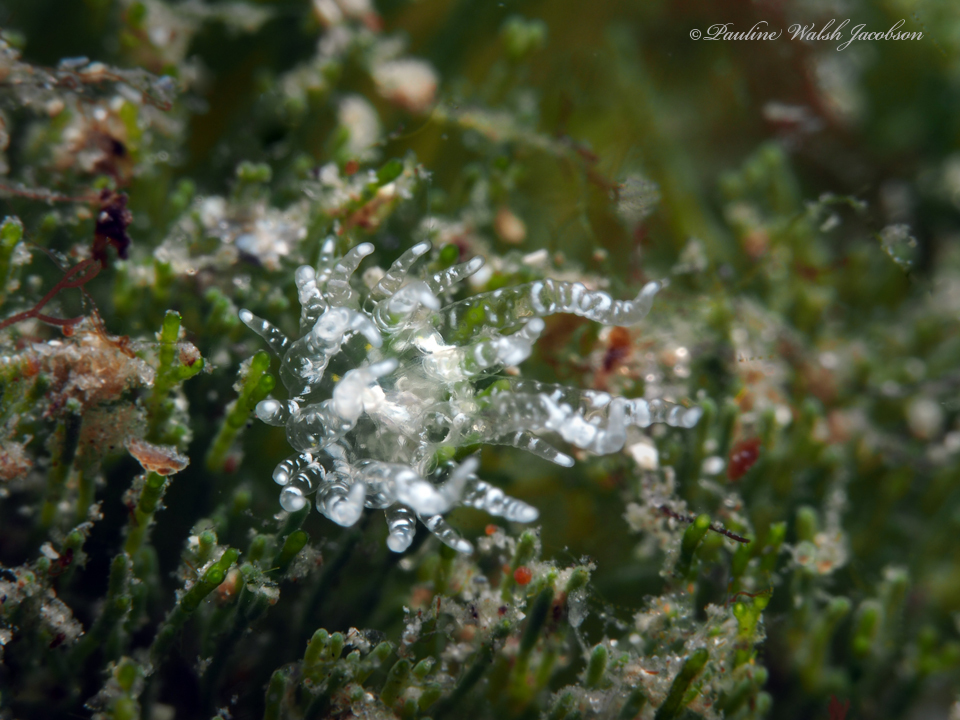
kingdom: Animalia
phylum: Cnidaria
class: Anthozoa
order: Actiniaria
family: Boloceroididae
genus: Bunodeopsis
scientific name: Bunodeopsis globulifera
